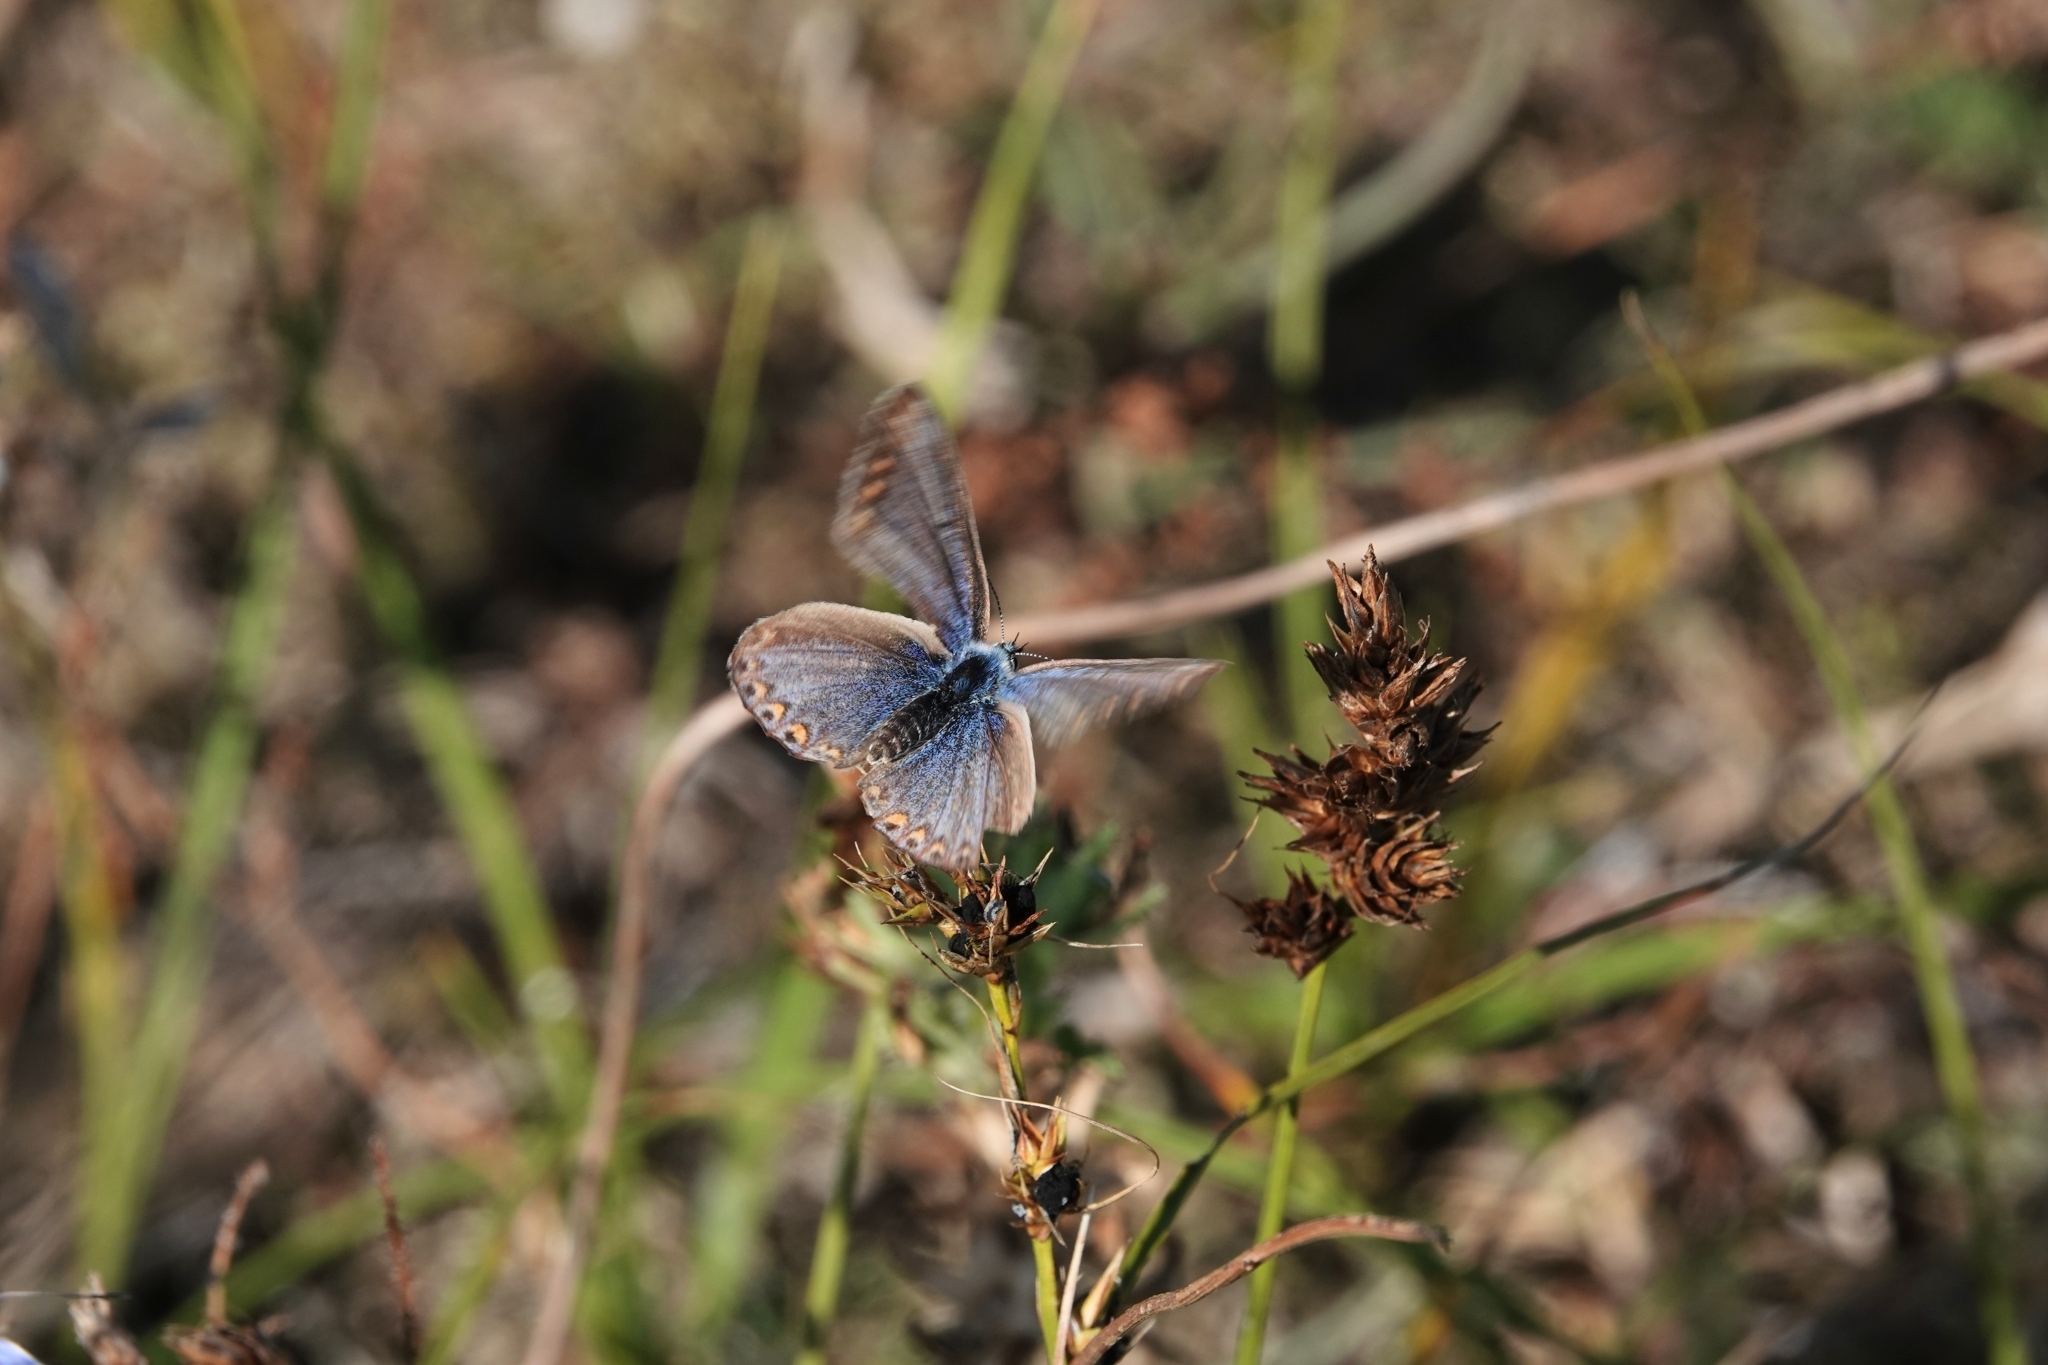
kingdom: Animalia
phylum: Arthropoda
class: Insecta
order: Lepidoptera
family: Lycaenidae
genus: Polyommatus
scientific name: Polyommatus icarus
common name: Common blue
